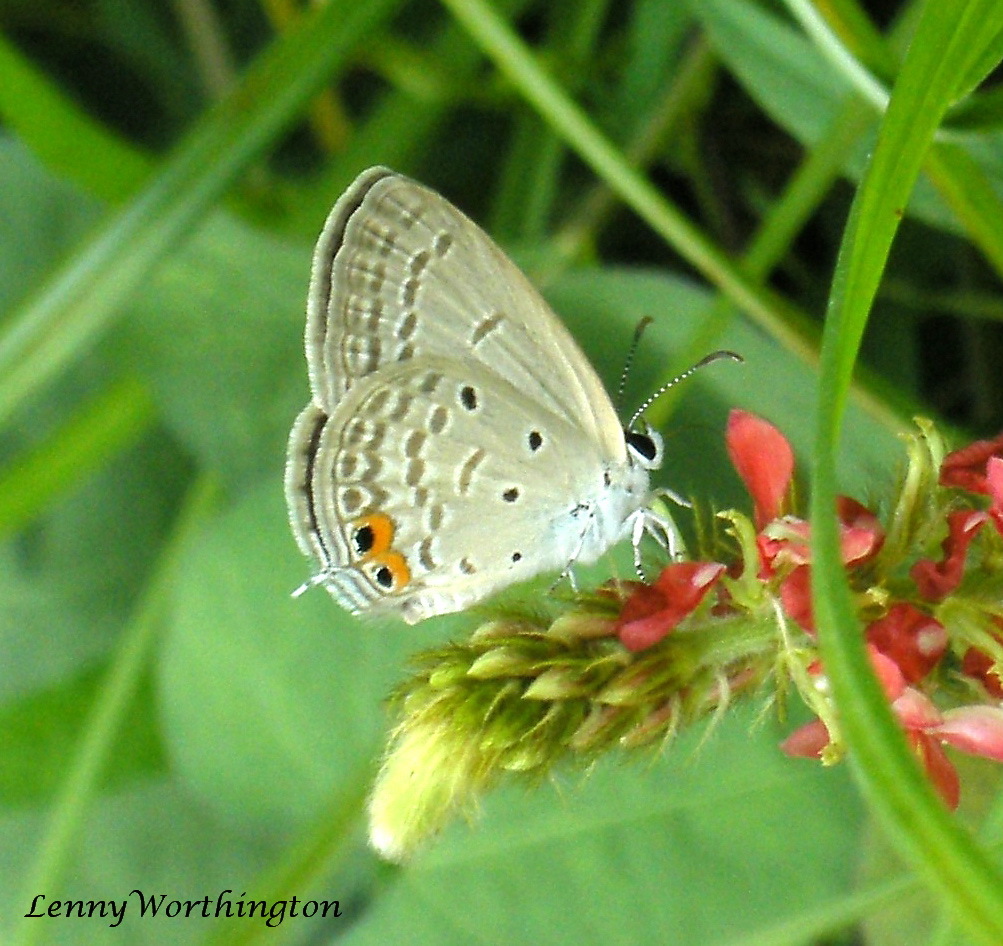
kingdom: Animalia
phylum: Arthropoda
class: Insecta
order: Lepidoptera
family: Lycaenidae
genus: Euchrysops
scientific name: Euchrysops cnejus
